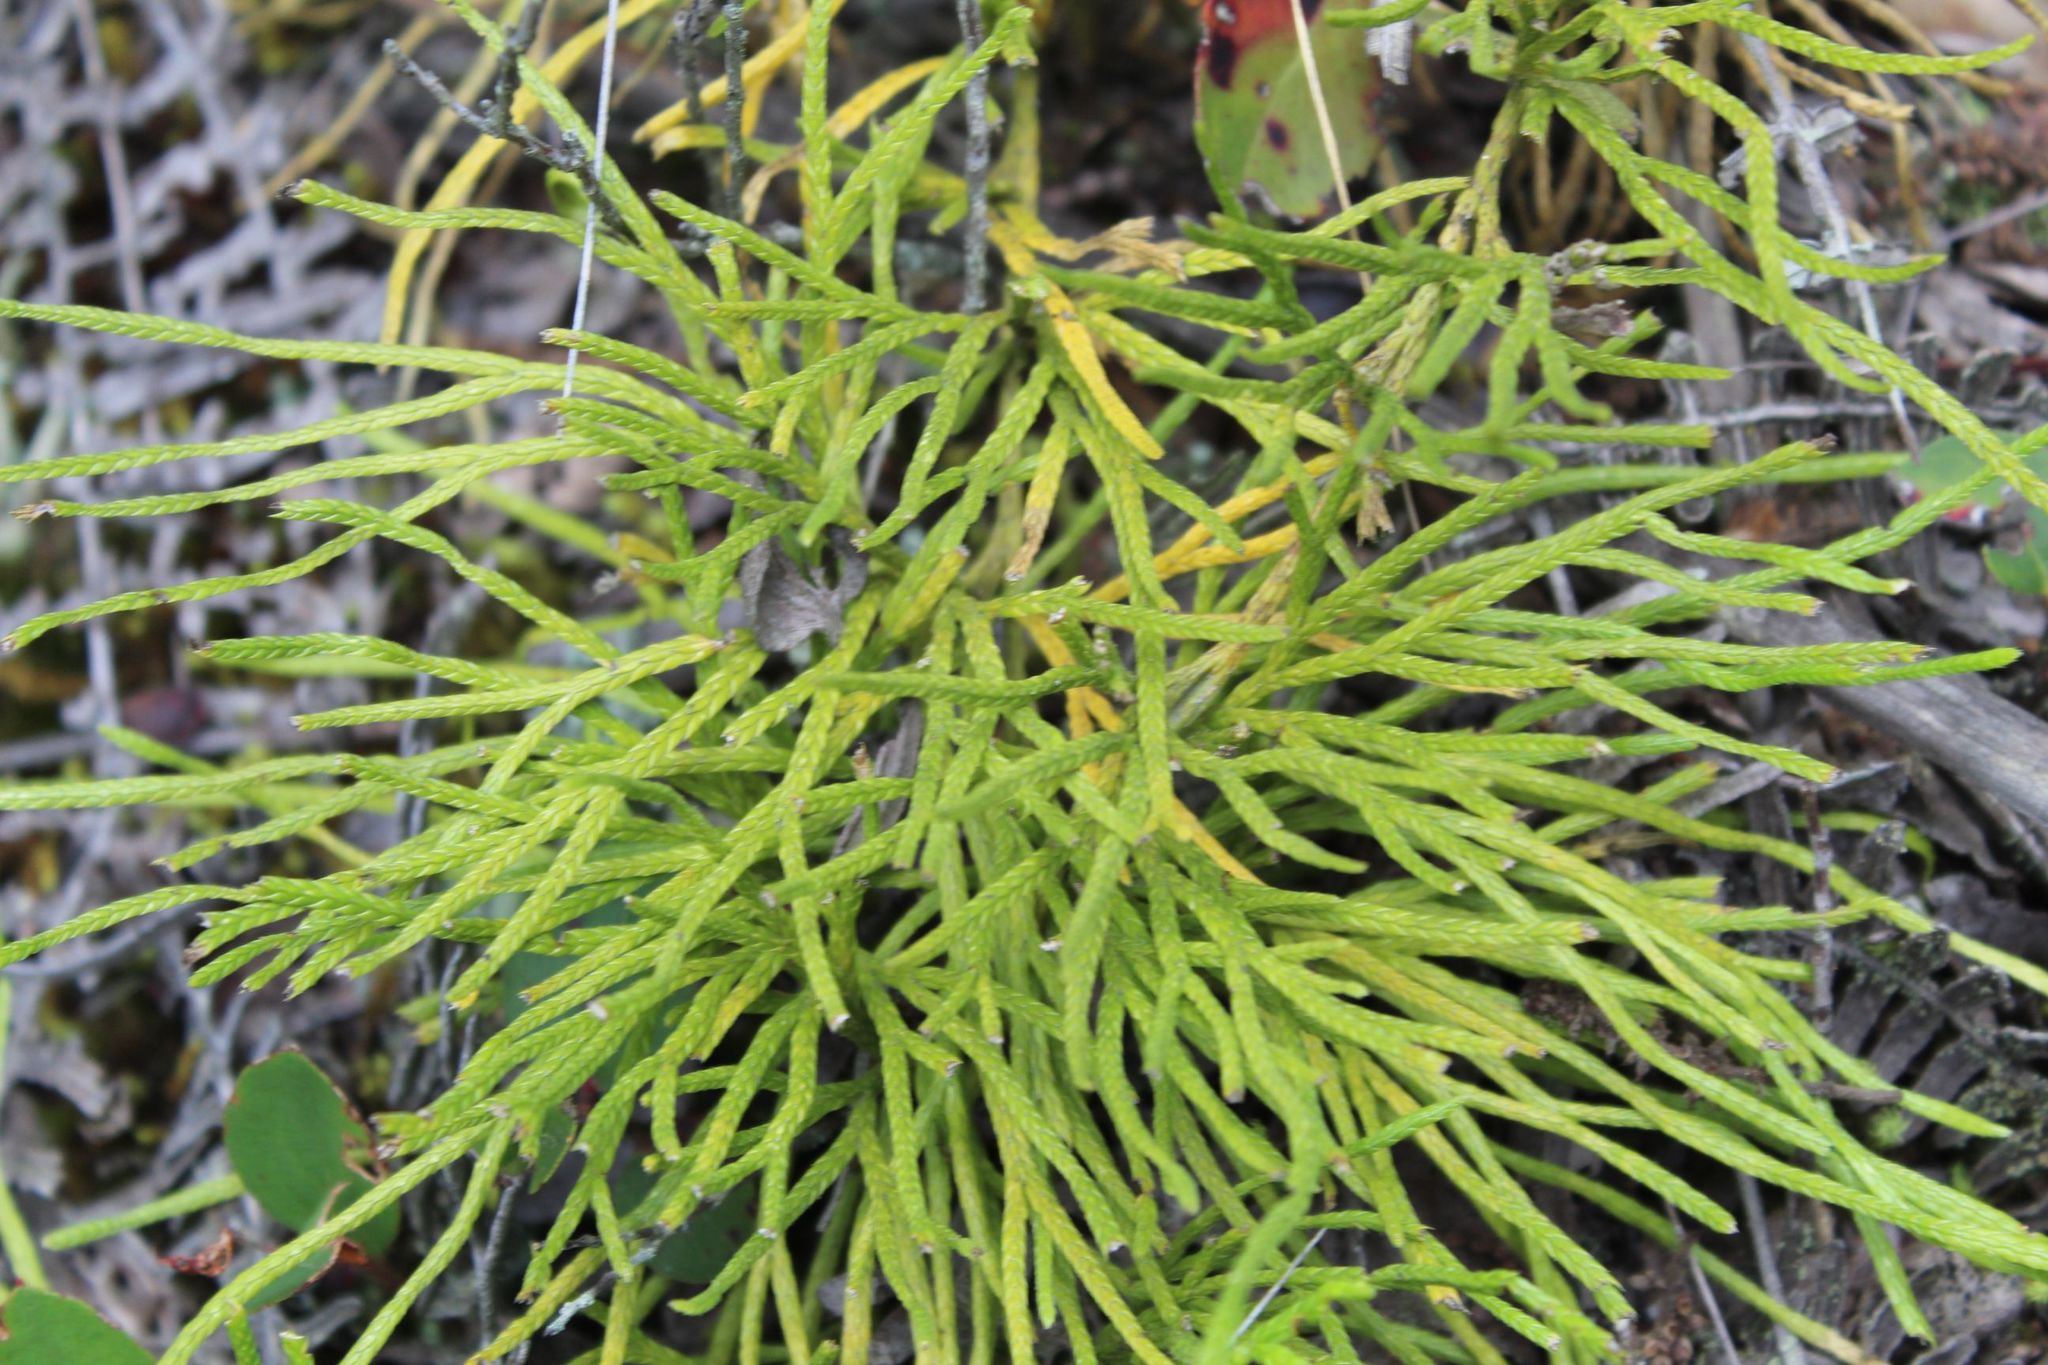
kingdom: Plantae
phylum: Tracheophyta
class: Lycopodiopsida
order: Lycopodiales
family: Lycopodiaceae
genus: Diphasiastrum
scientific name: Diphasiastrum thyoides
